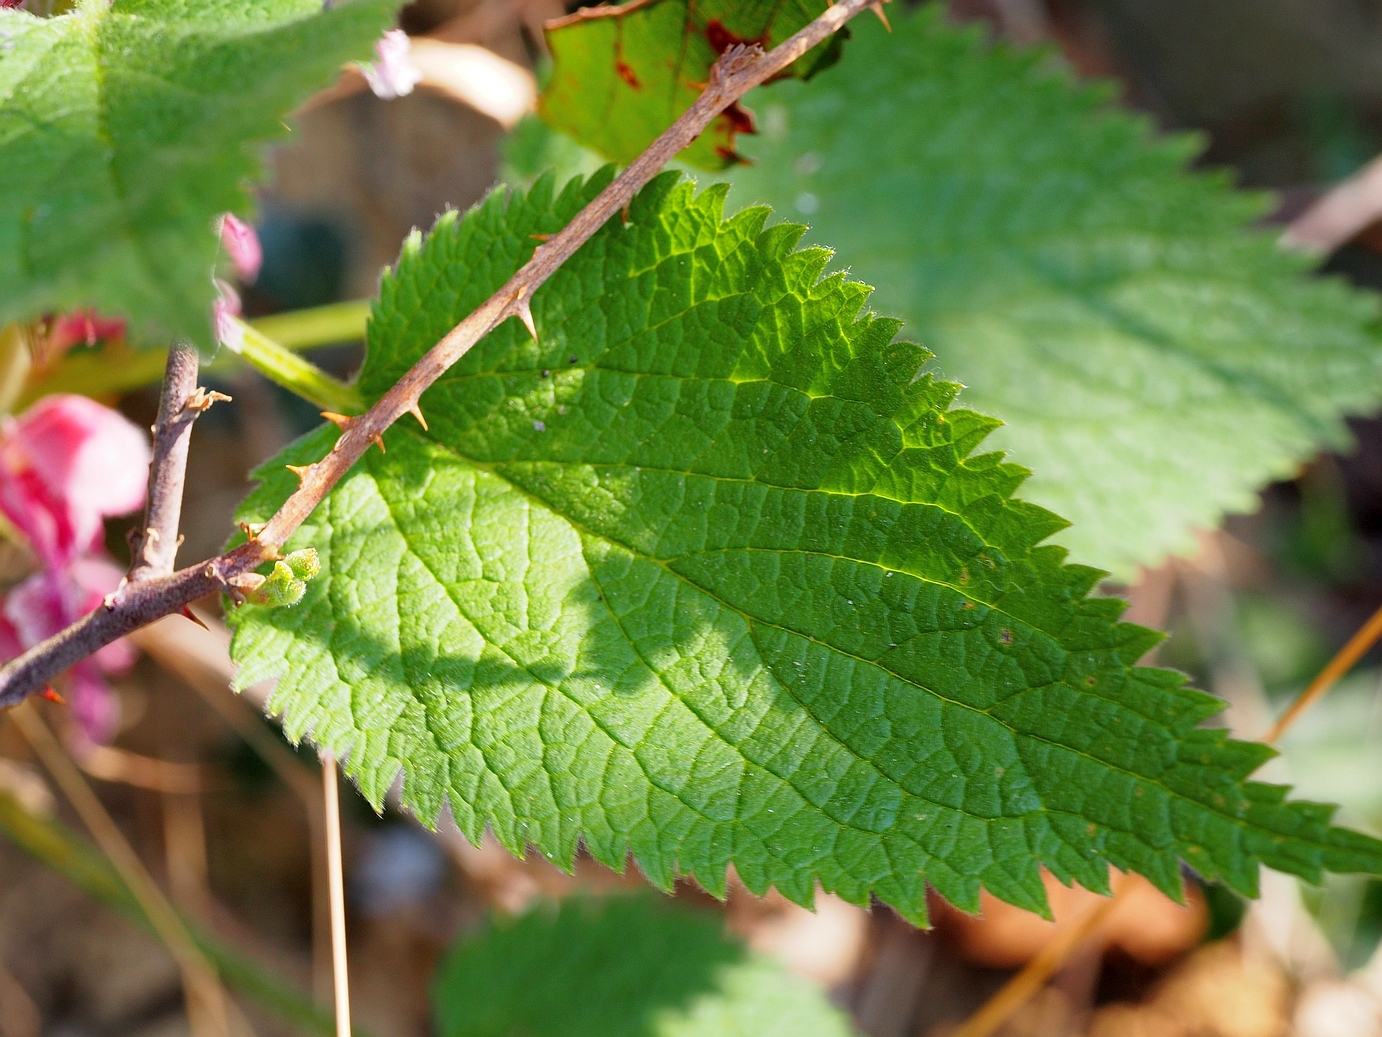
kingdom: Plantae
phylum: Tracheophyta
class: Magnoliopsida
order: Lamiales
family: Lamiaceae
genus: Lamium
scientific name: Lamium orvala
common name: Balm-leaved archangel
